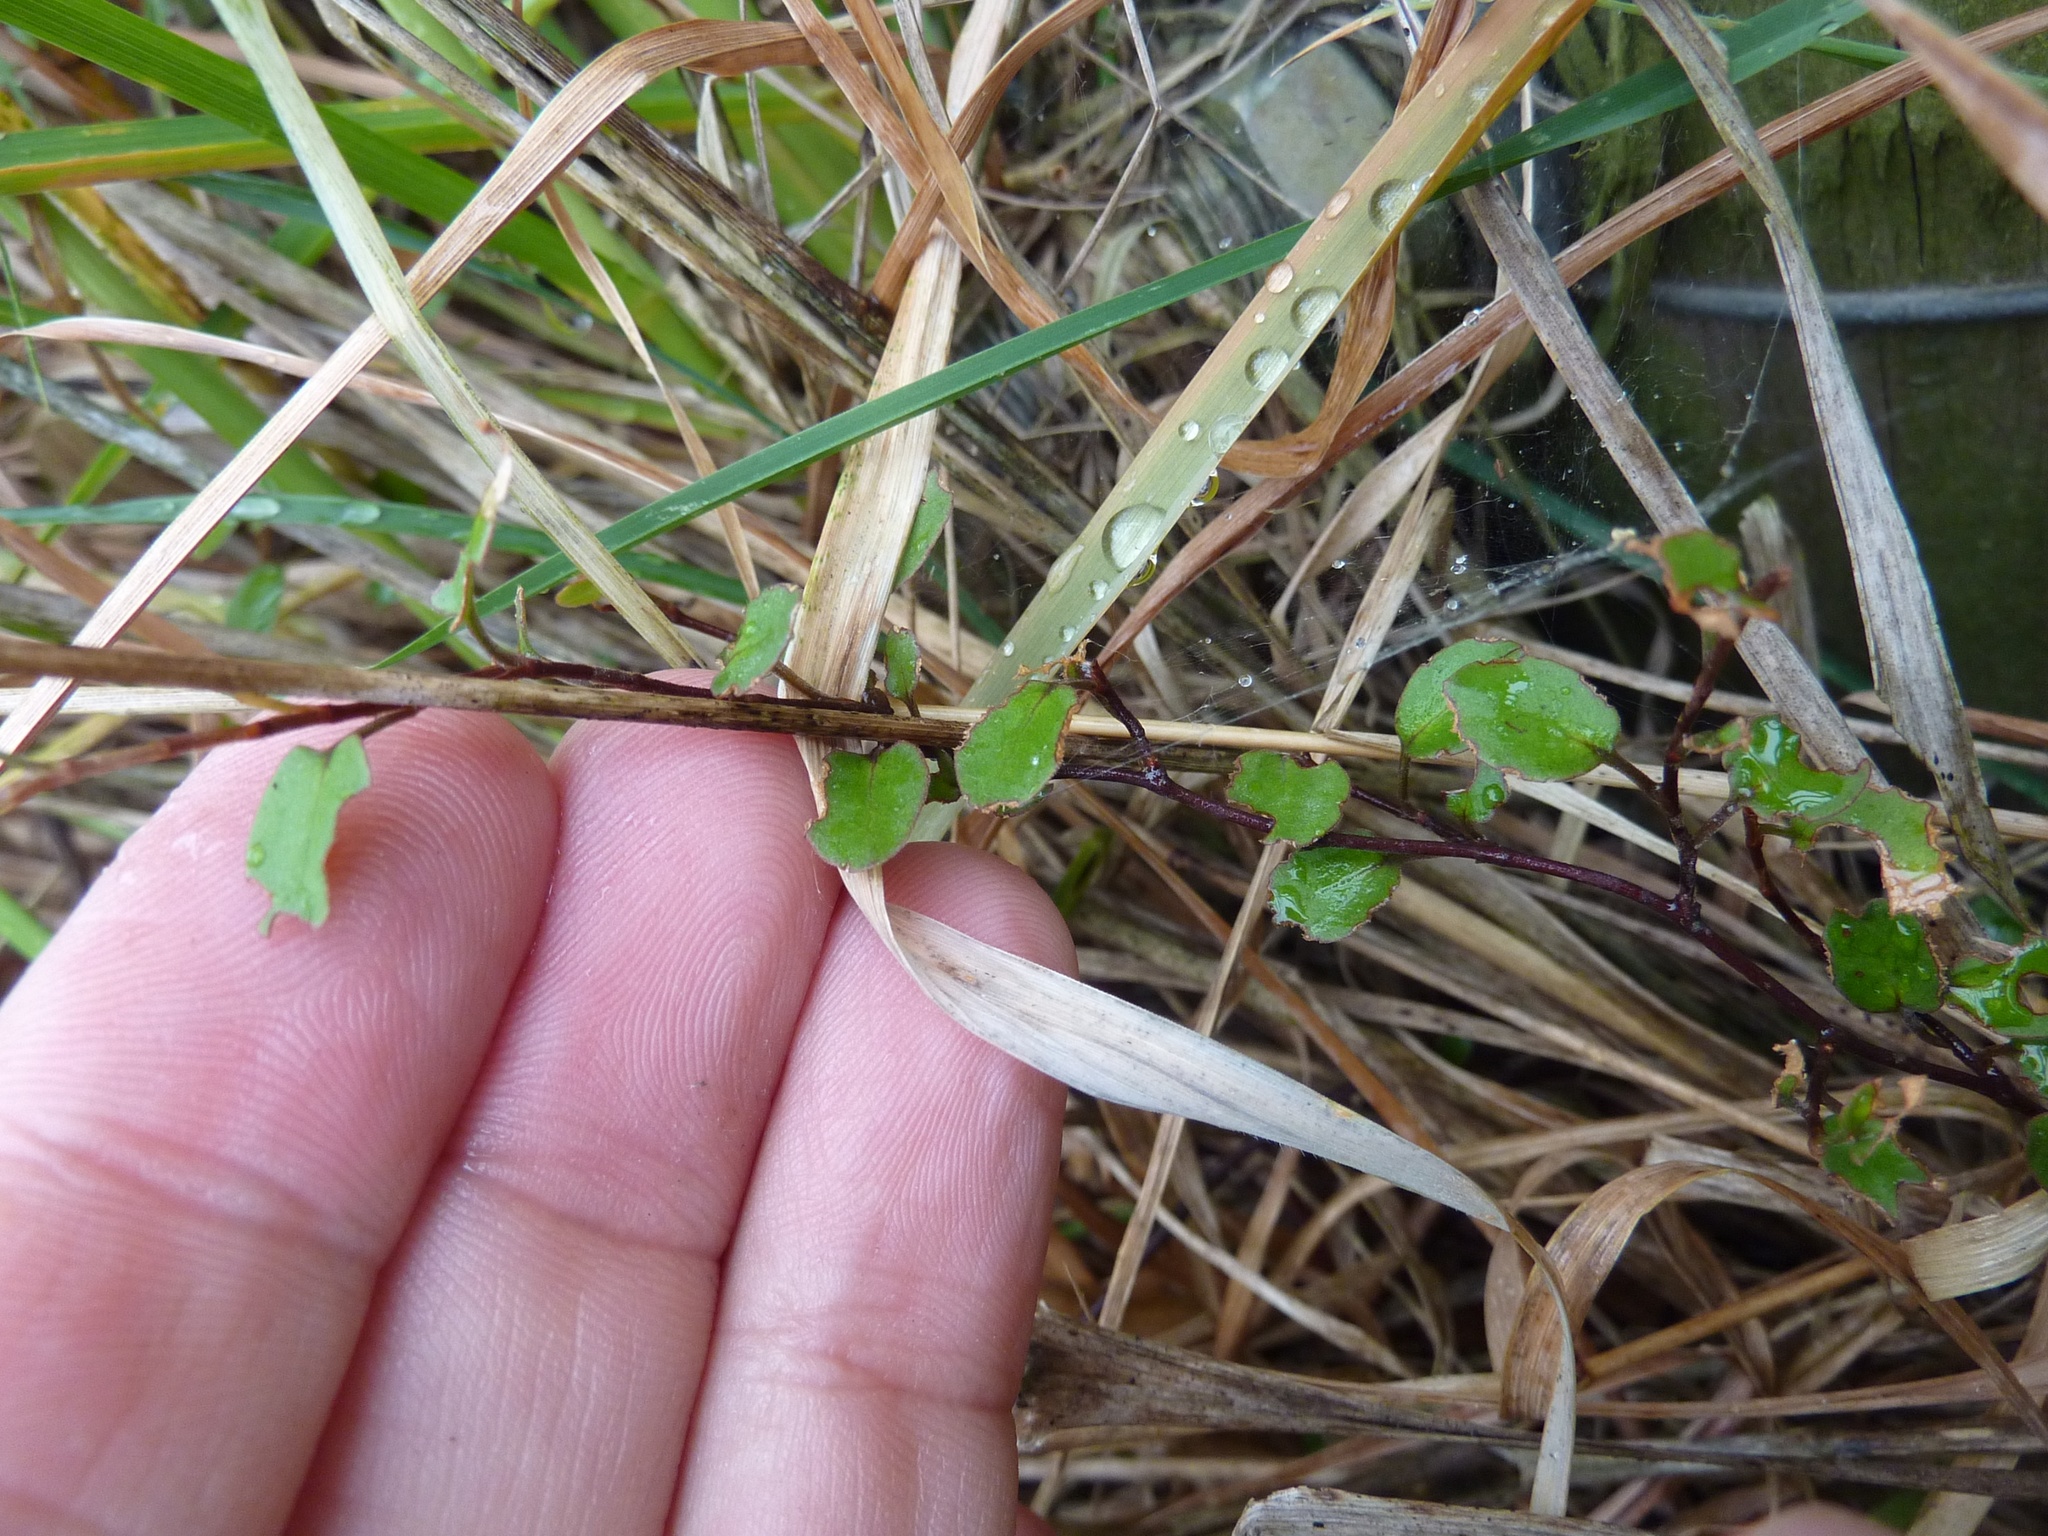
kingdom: Plantae
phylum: Tracheophyta
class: Magnoliopsida
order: Caryophyllales
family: Polygonaceae
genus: Muehlenbeckia
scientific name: Muehlenbeckia complexa
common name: Wireplant
